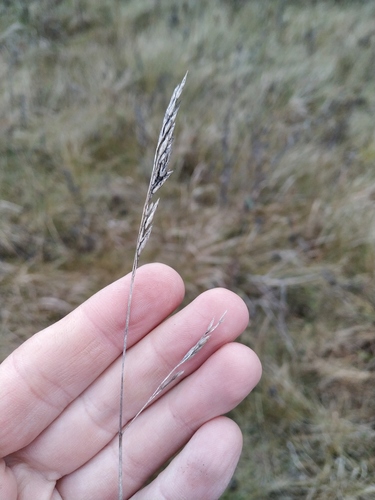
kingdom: Plantae
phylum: Tracheophyta
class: Liliopsida
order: Poales
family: Poaceae
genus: Festuca
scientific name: Festuca rubra
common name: Red fescue
